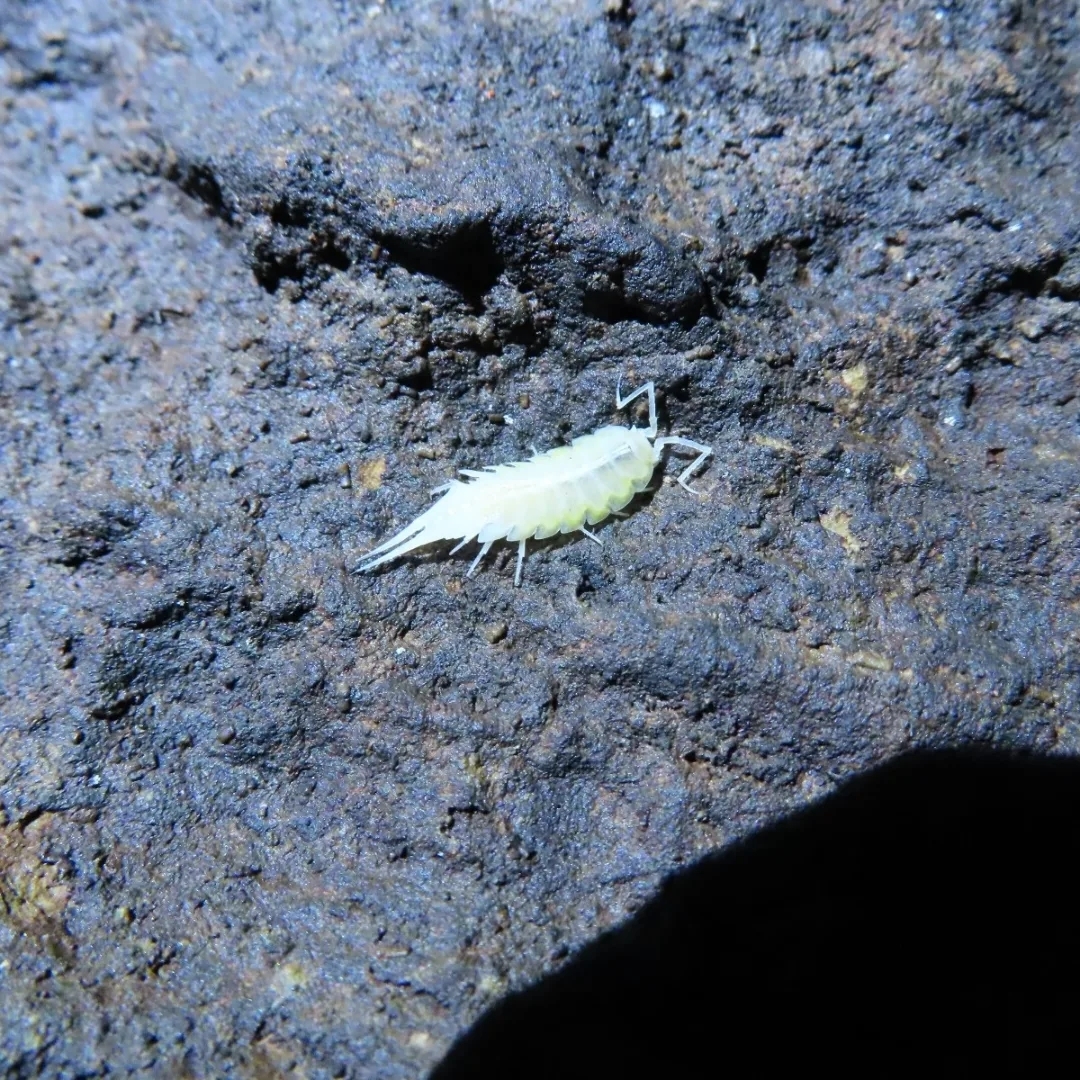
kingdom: Animalia
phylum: Arthropoda
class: Malacostraca
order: Isopoda
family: Trichoniscidae
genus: Titanethes
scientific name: Titanethes albus
